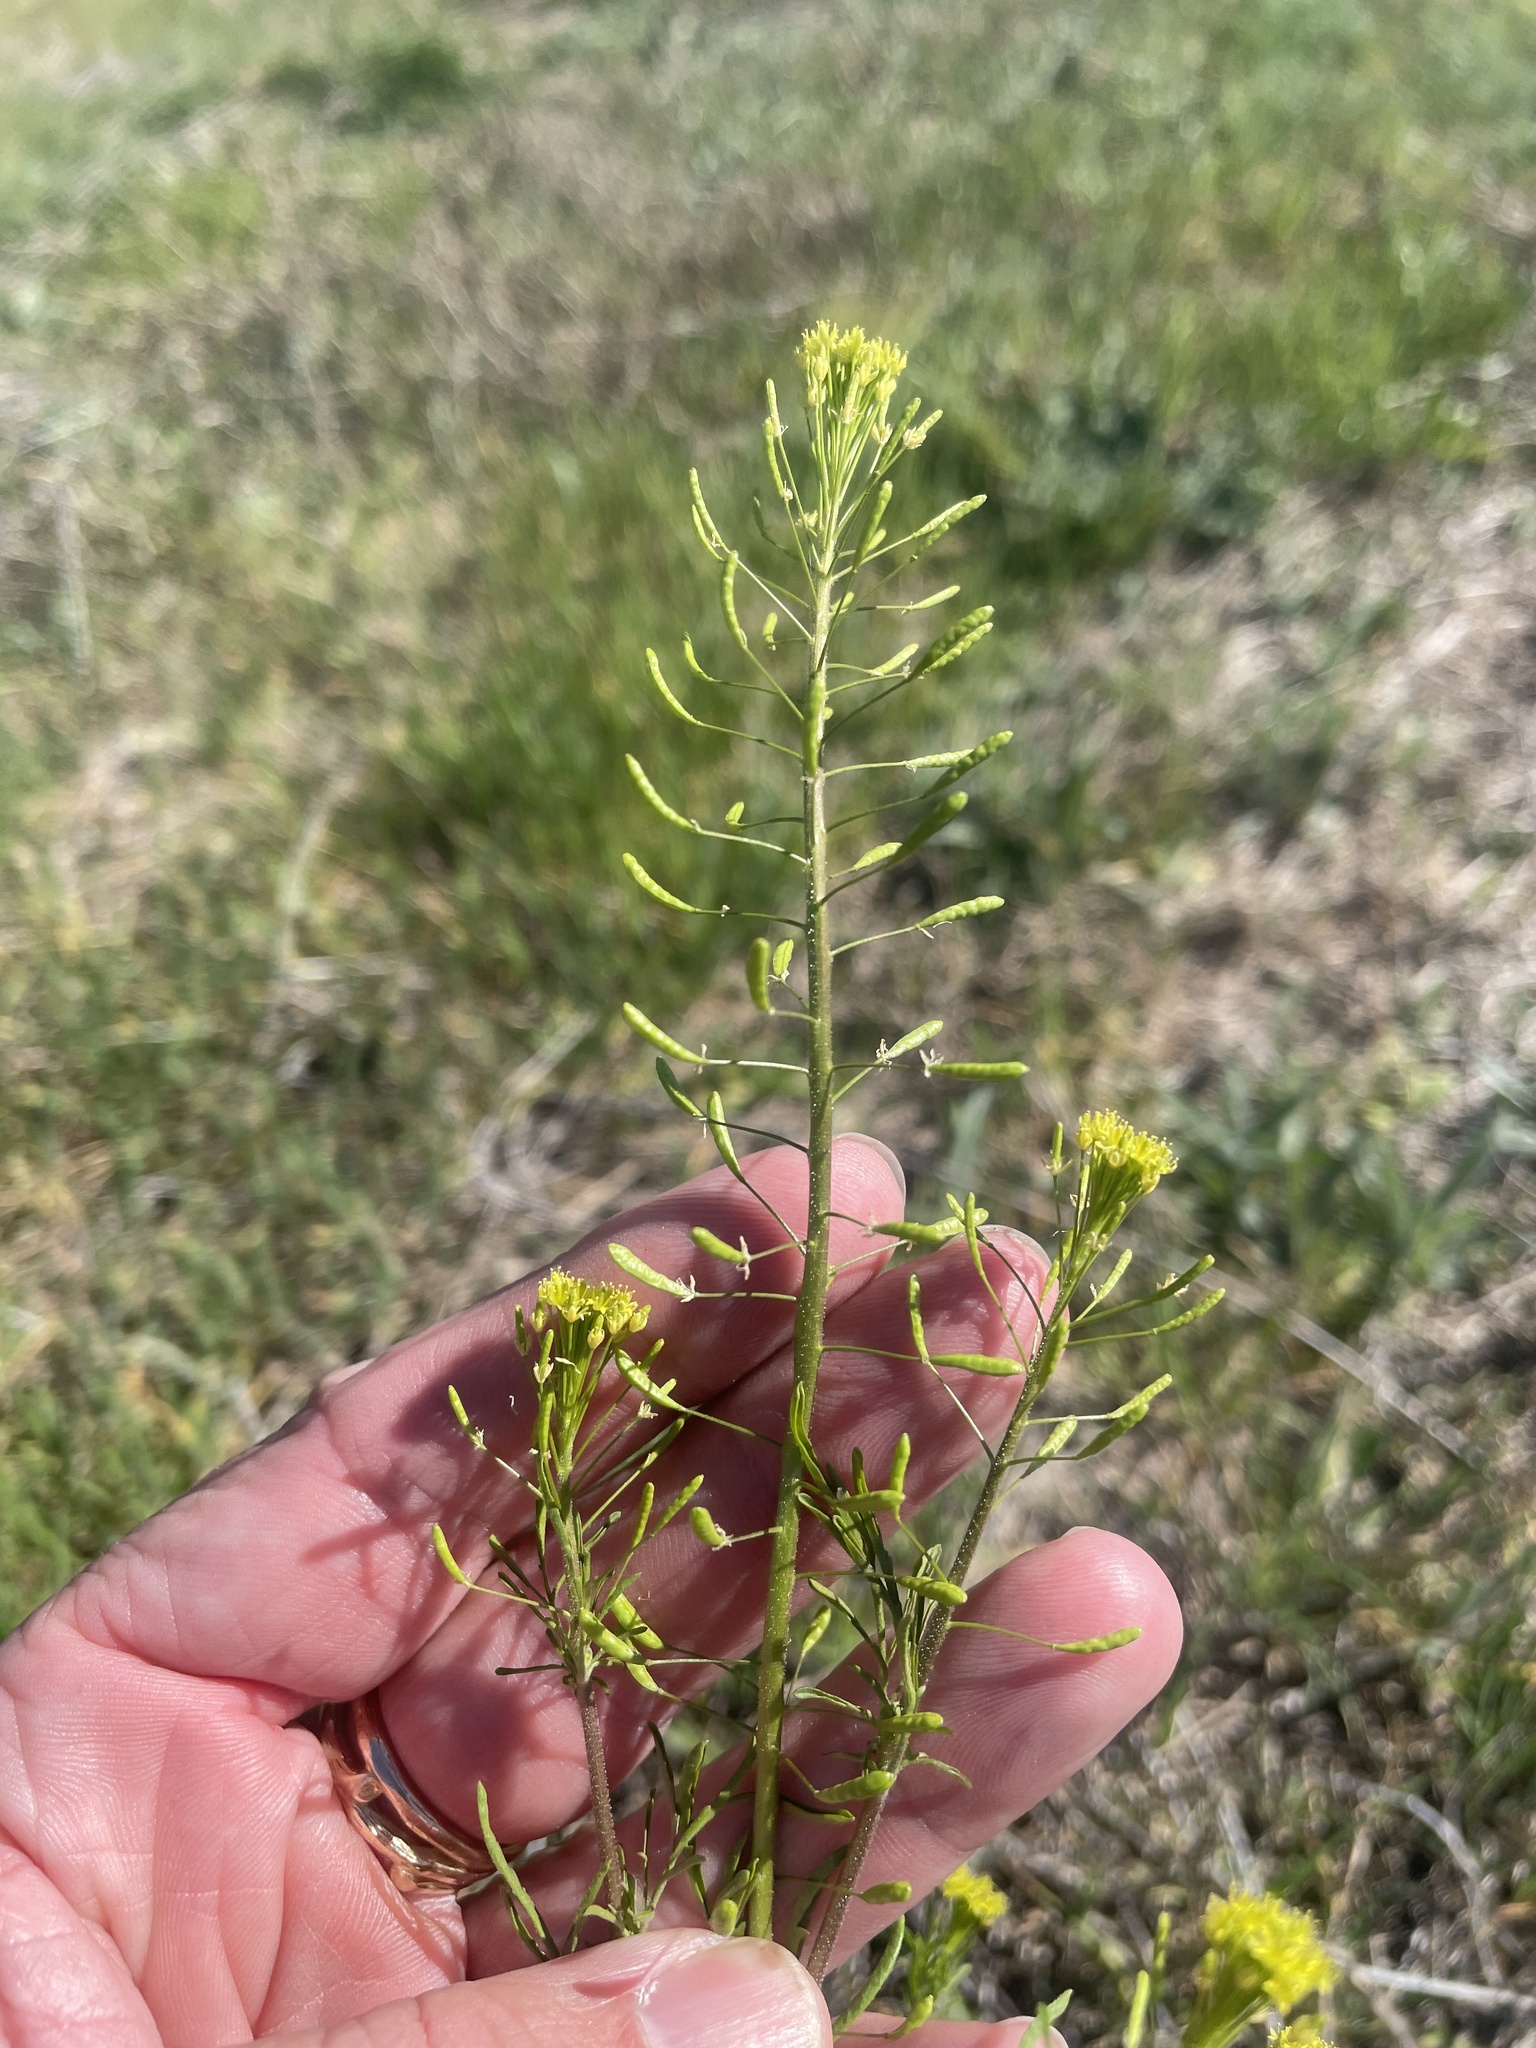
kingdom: Plantae
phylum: Tracheophyta
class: Magnoliopsida
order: Brassicales
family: Brassicaceae
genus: Descurainia
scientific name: Descurainia pinnata
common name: Western tansy mustard
